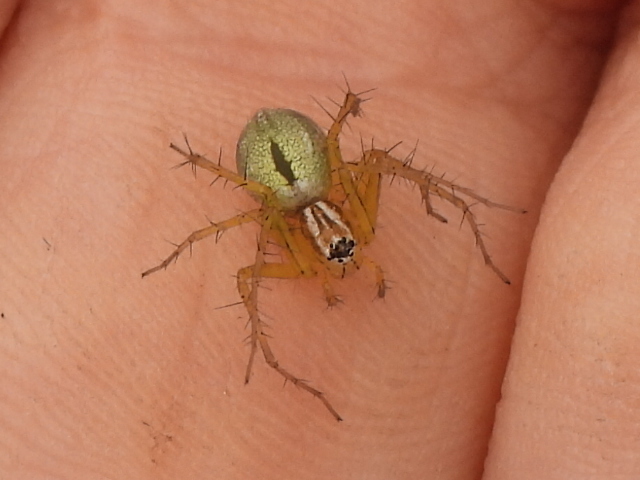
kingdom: Animalia
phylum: Arthropoda
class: Arachnida
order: Araneae
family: Oxyopidae
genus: Oxyopes
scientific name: Oxyopes salticus
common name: Lynx spiders
